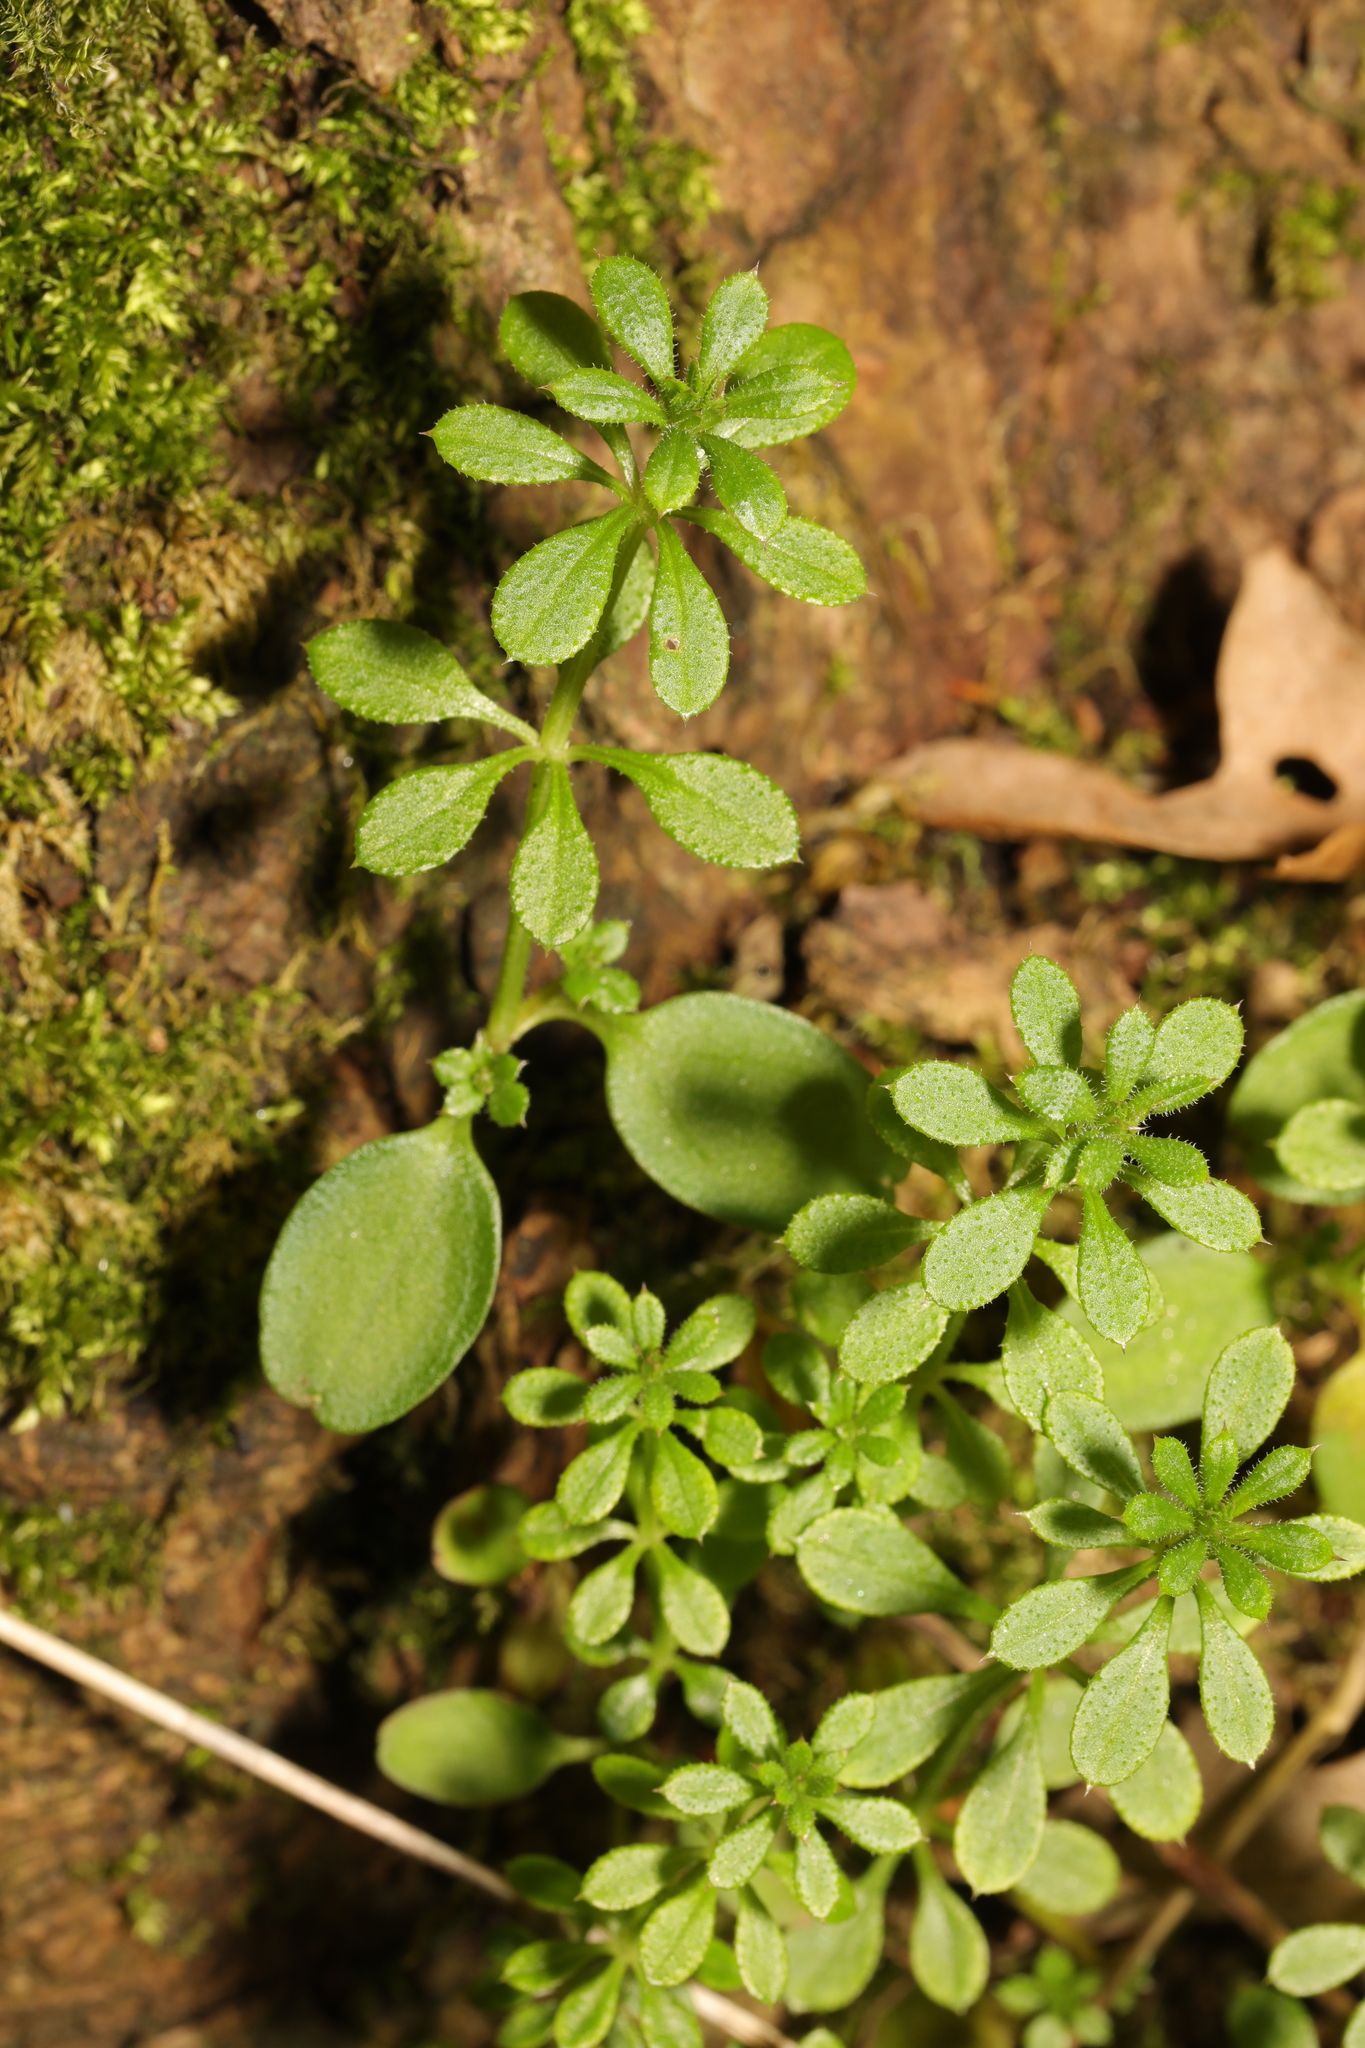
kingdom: Plantae
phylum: Tracheophyta
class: Magnoliopsida
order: Gentianales
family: Rubiaceae
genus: Galium
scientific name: Galium aparine
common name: Cleavers
